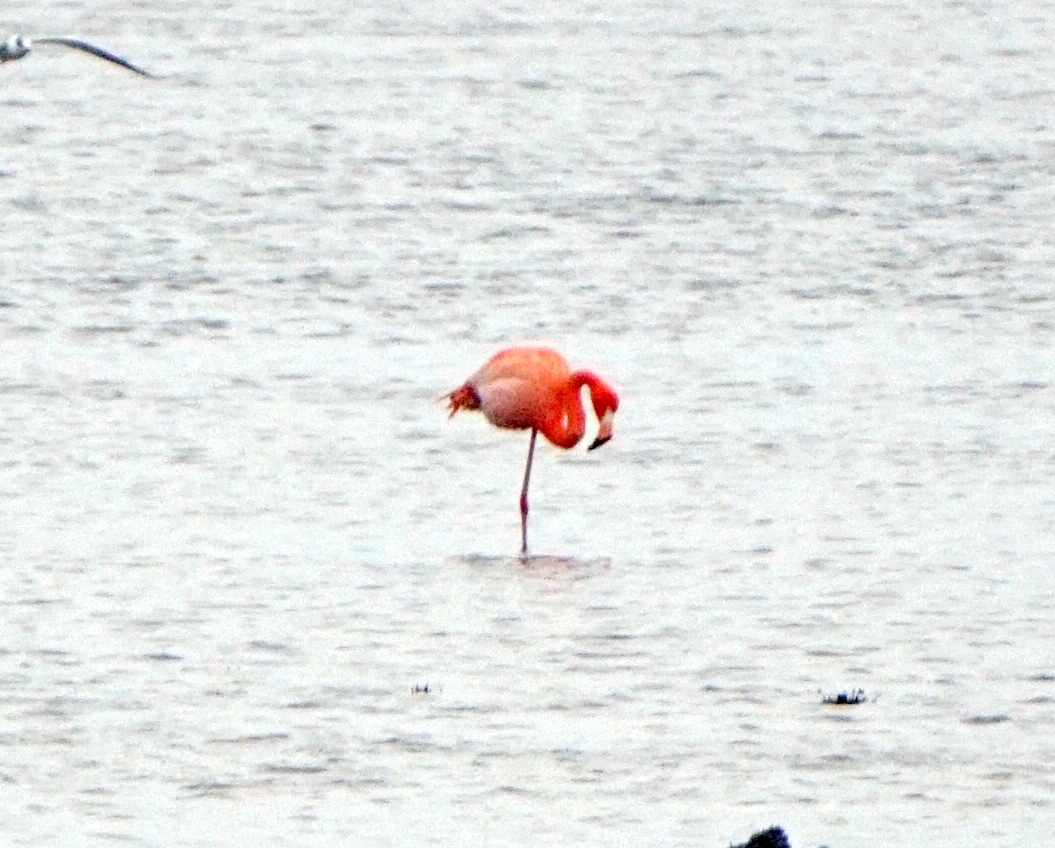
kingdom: Animalia
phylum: Chordata
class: Aves
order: Phoenicopteriformes
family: Phoenicopteridae
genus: Phoenicopterus
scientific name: Phoenicopterus ruber
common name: American flamingo
